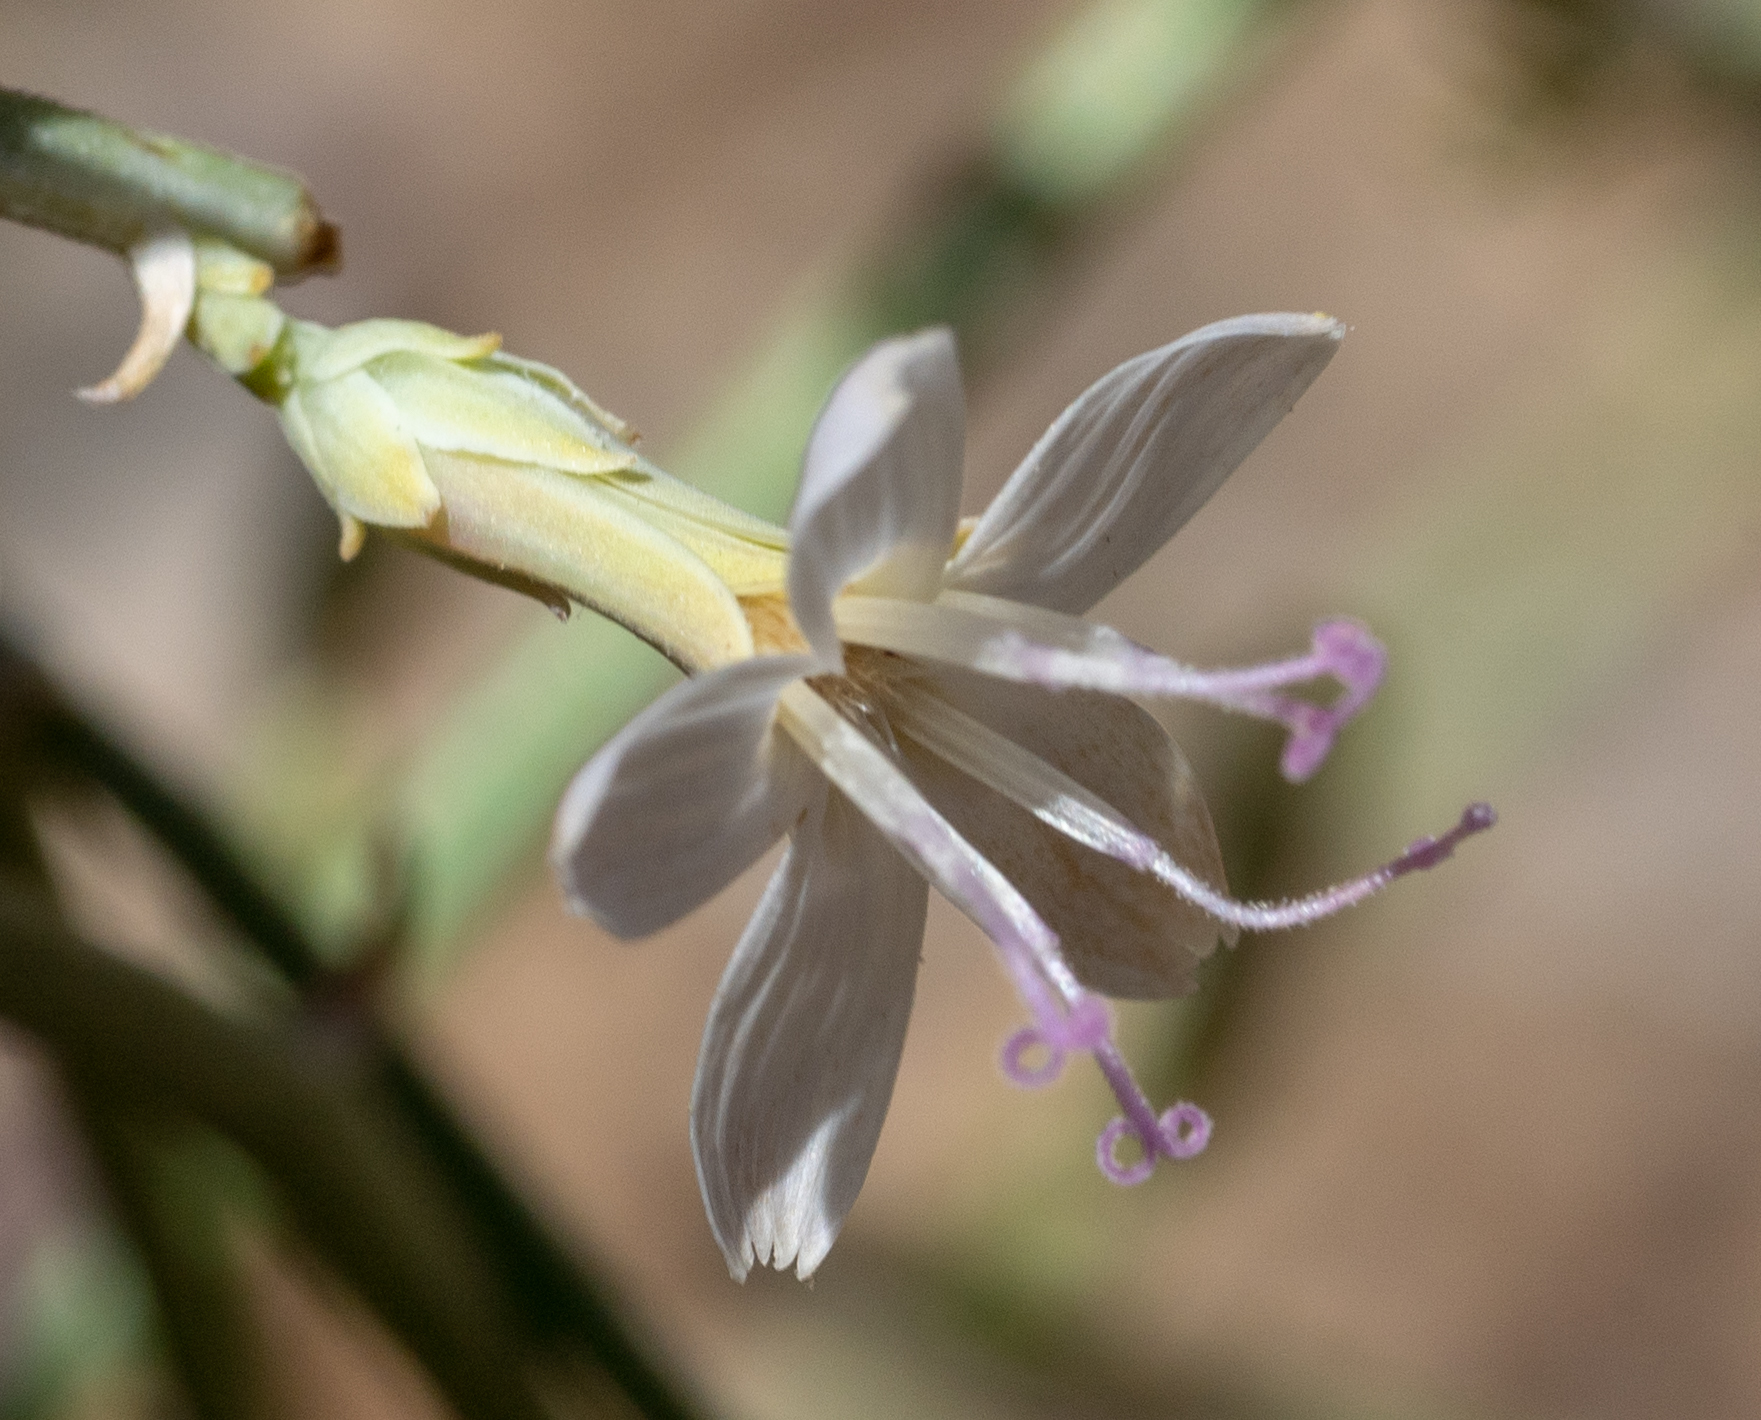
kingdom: Plantae
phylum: Tracheophyta
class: Magnoliopsida
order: Asterales
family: Asteraceae
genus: Stephanomeria
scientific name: Stephanomeria pauciflora
